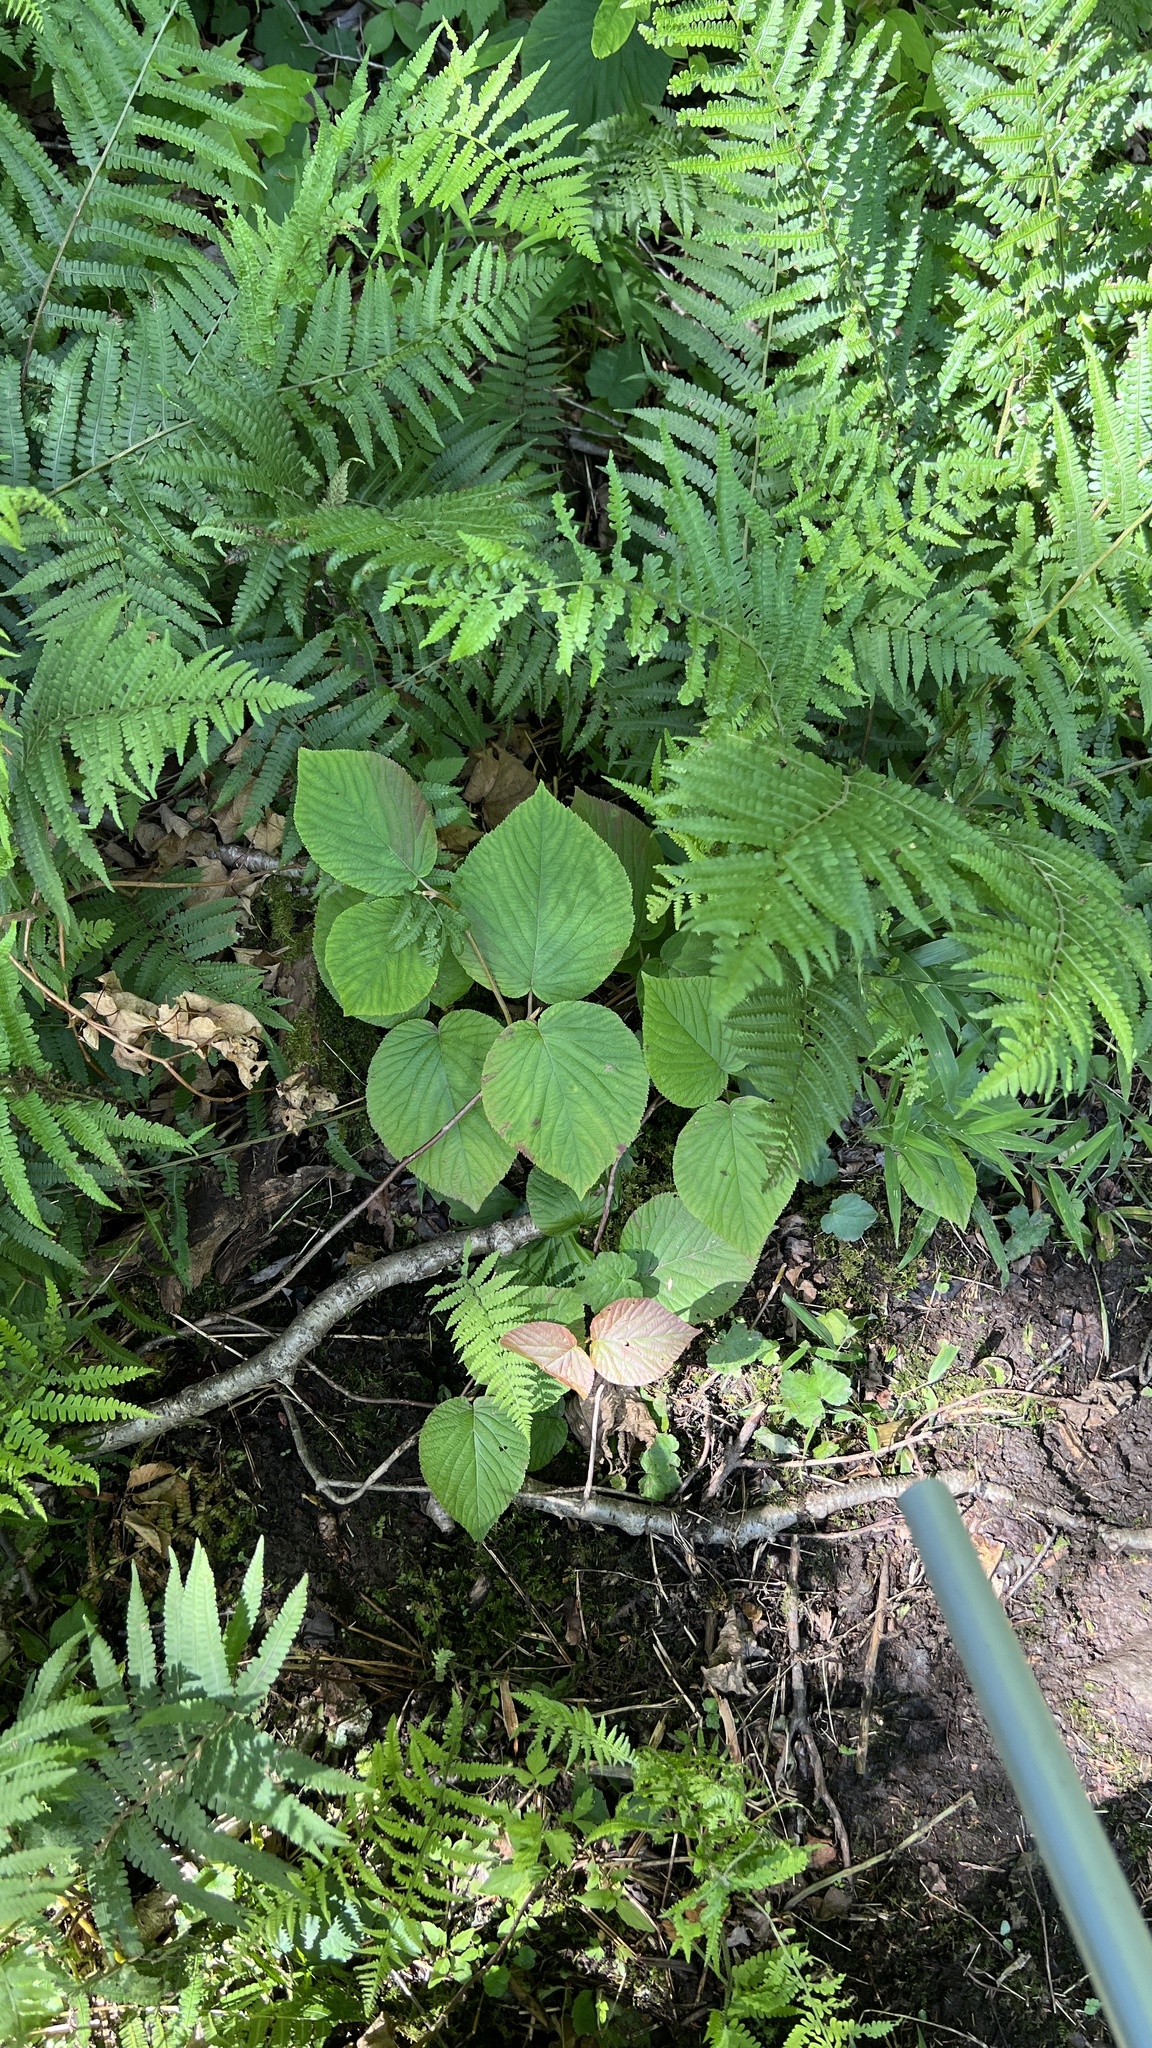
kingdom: Plantae
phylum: Tracheophyta
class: Magnoliopsida
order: Dipsacales
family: Viburnaceae
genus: Viburnum
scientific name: Viburnum lantanoides
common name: Hobblebush
